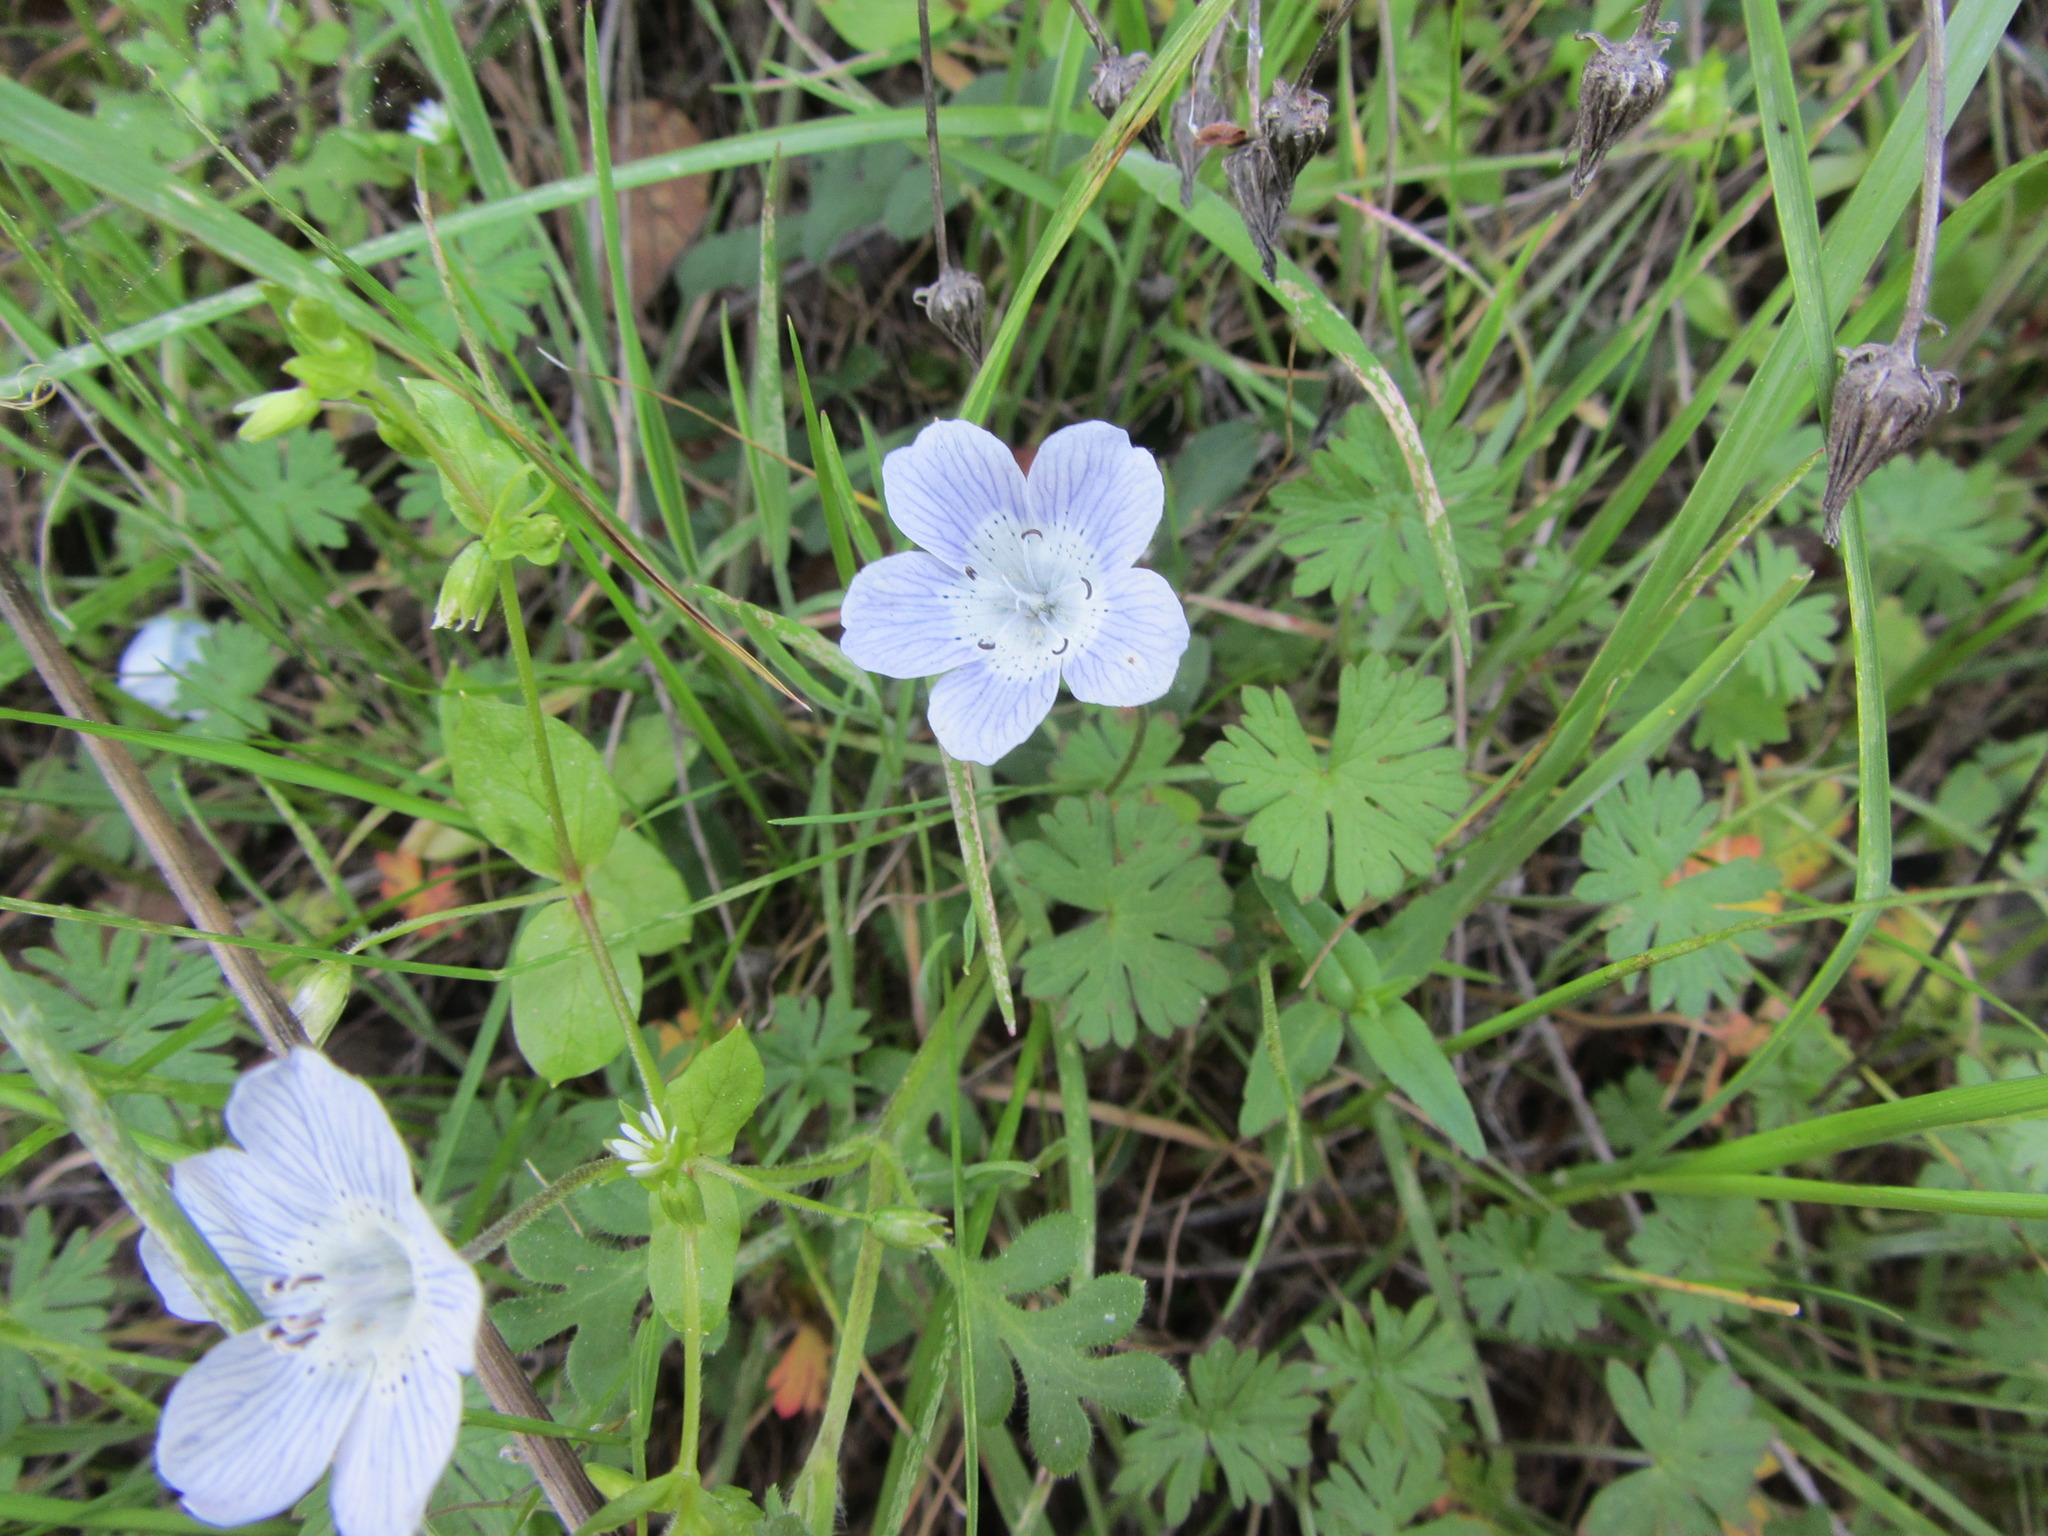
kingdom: Plantae
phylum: Tracheophyta
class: Magnoliopsida
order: Boraginales
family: Hydrophyllaceae
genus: Nemophila
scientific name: Nemophila menziesii
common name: Baby's-blue-eyes
